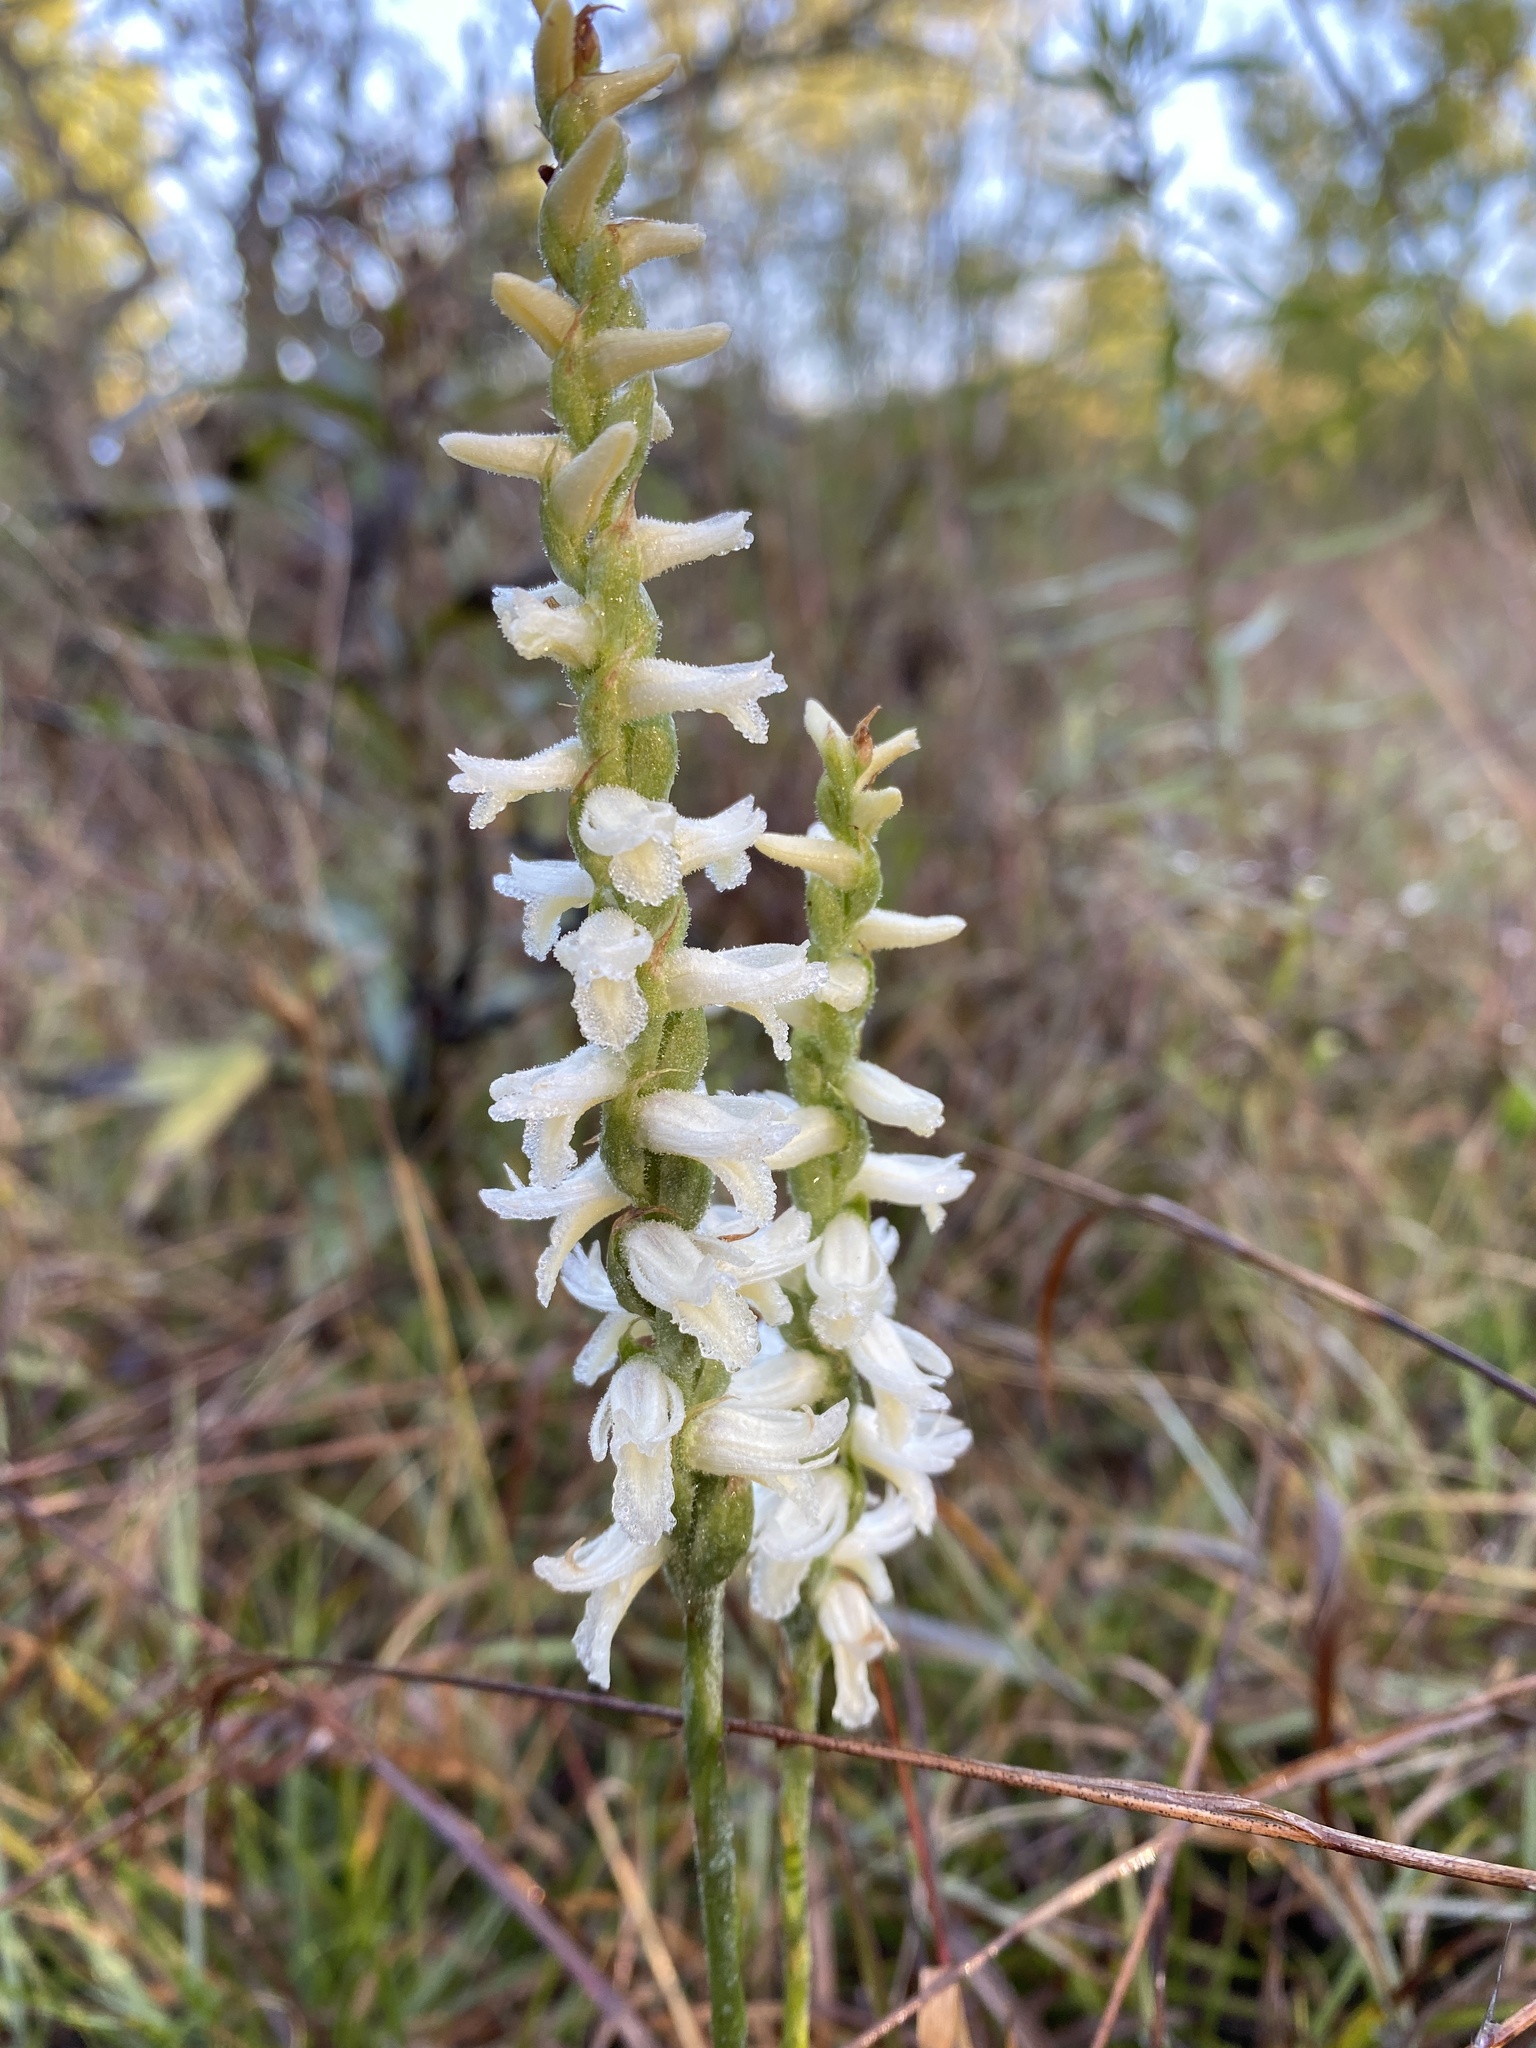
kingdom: Plantae
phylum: Tracheophyta
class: Liliopsida
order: Asparagales
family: Orchidaceae
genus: Spiranthes
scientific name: Spiranthes magnicamporum
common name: Great plains ladies'-tresses
